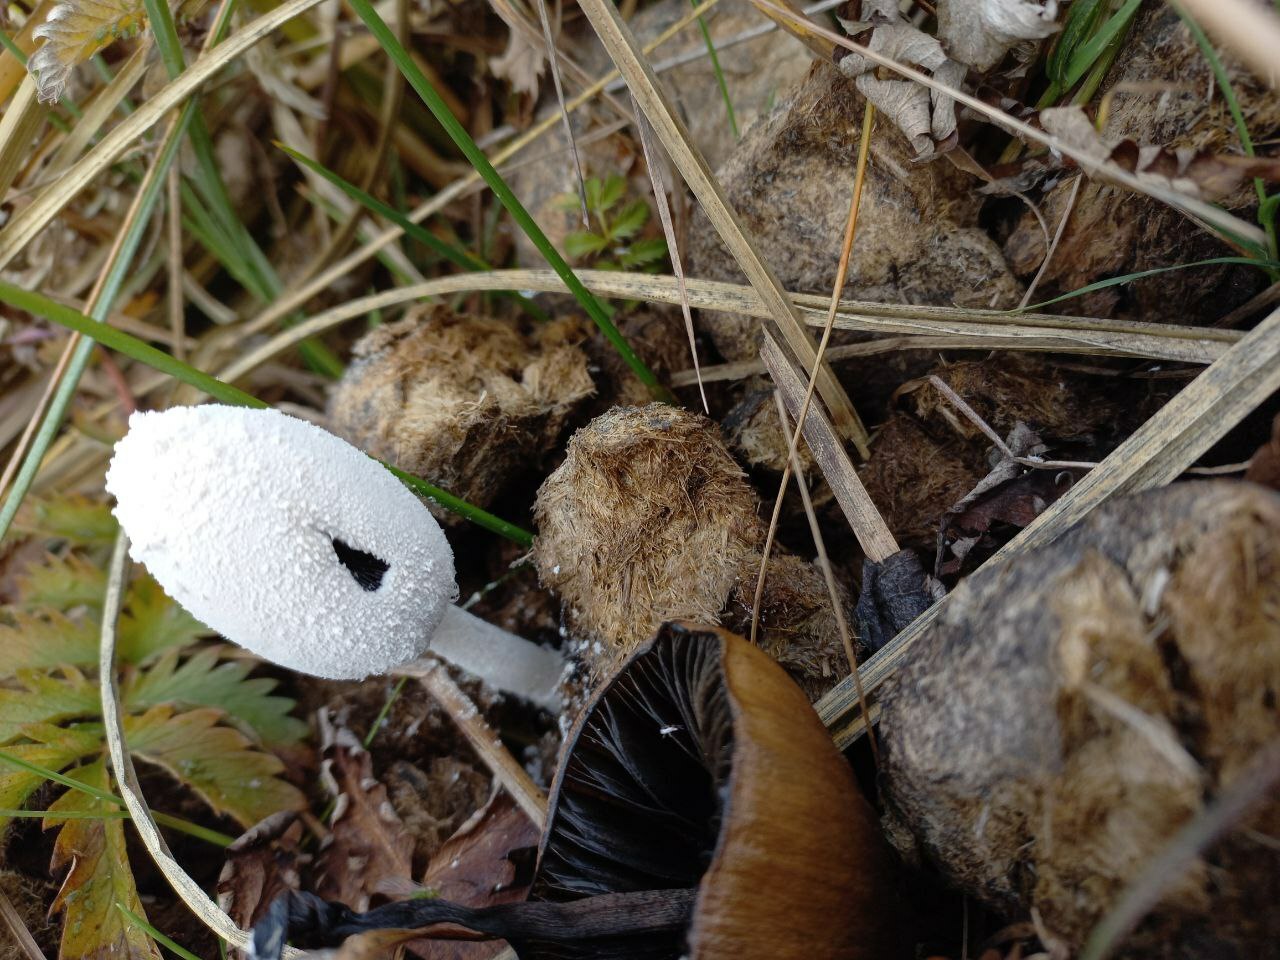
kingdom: Fungi
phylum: Basidiomycota
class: Agaricomycetes
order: Agaricales
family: Psathyrellaceae
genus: Coprinopsis
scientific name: Coprinopsis nivea
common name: Snowy inkcap
